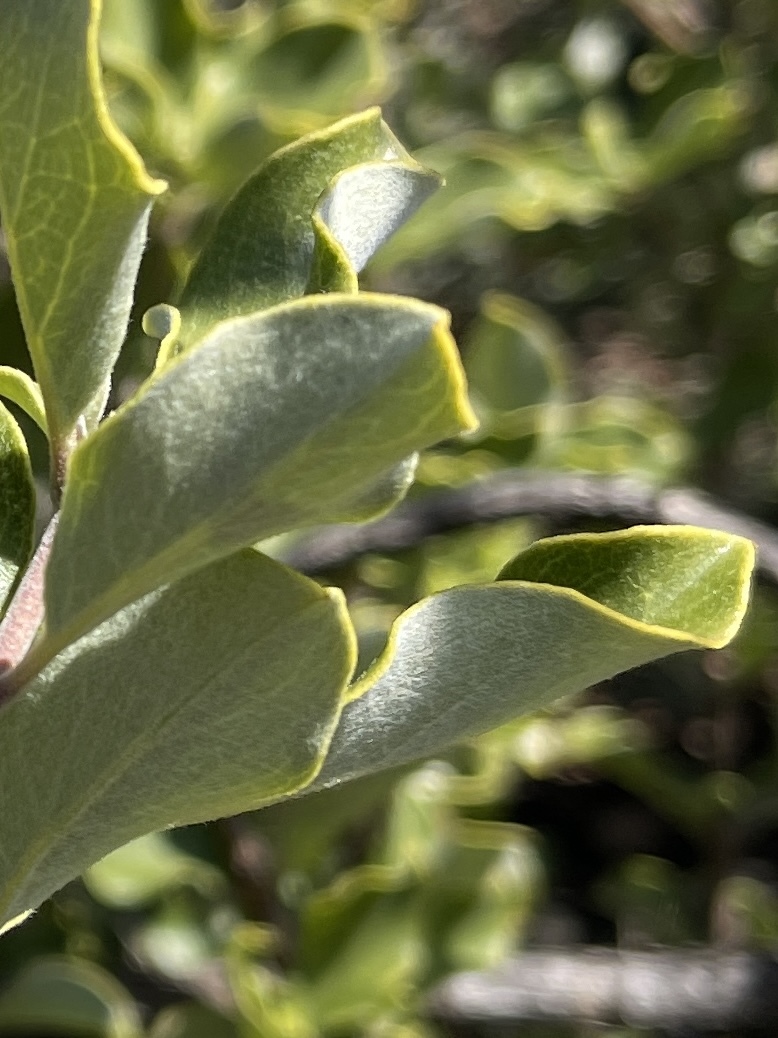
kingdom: Plantae
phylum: Tracheophyta
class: Magnoliopsida
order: Garryales
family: Garryaceae
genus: Garrya
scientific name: Garrya flavescens
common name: Ashy silk-tassel
